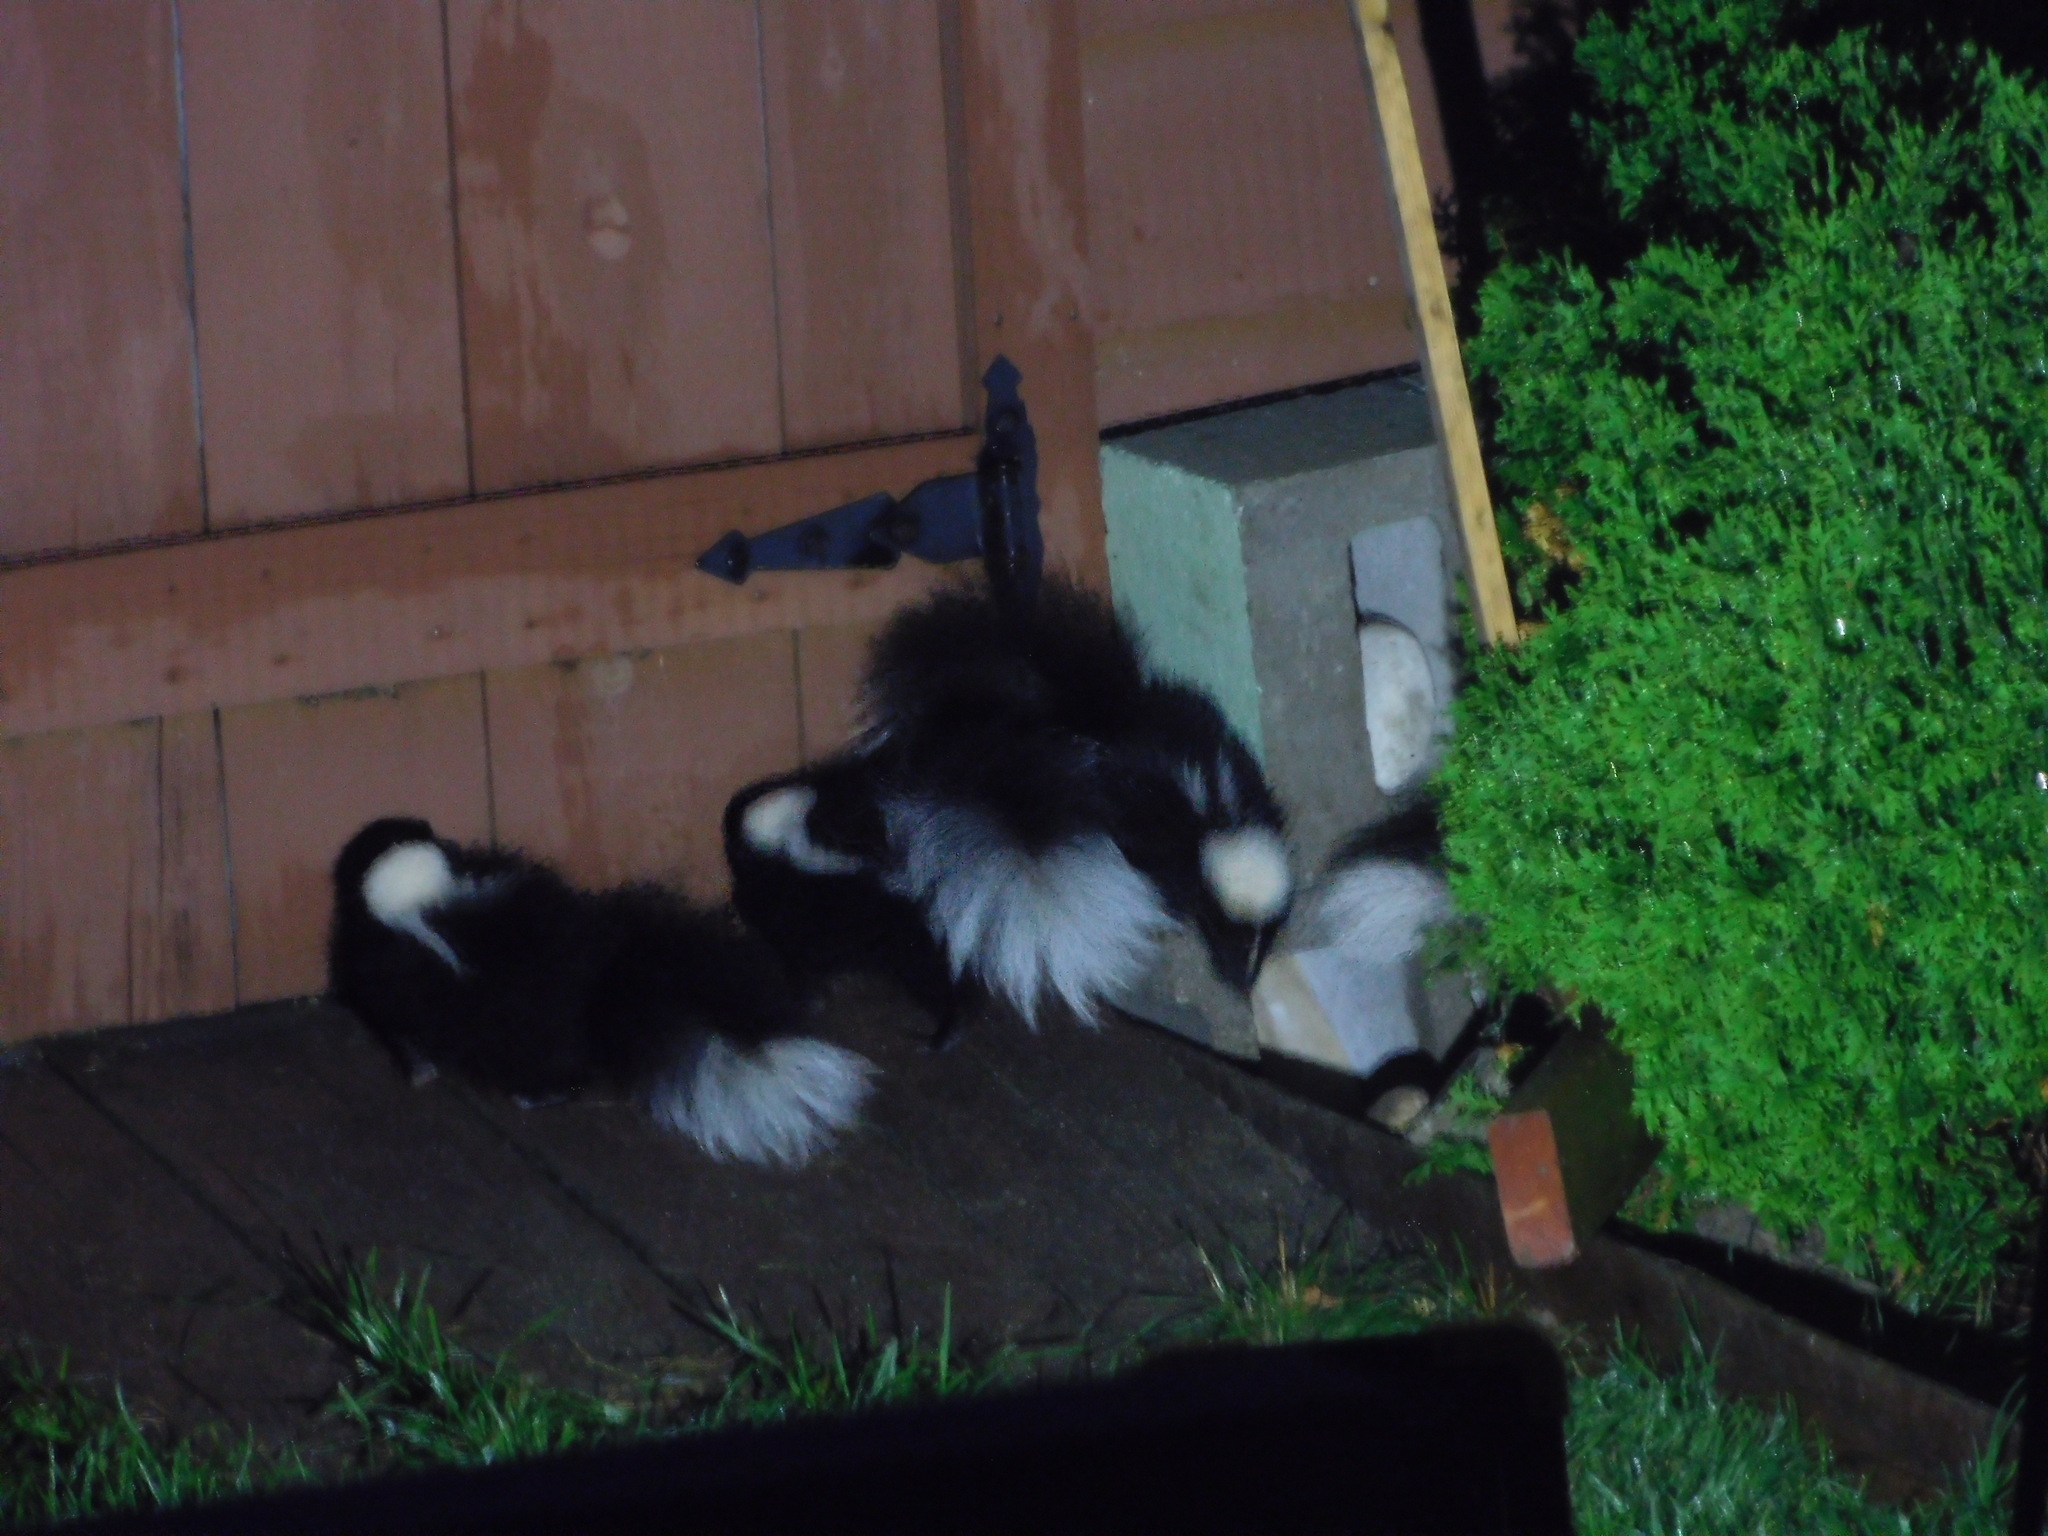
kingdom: Animalia
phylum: Chordata
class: Mammalia
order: Carnivora
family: Mephitidae
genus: Mephitis
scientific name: Mephitis mephitis
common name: Striped skunk
